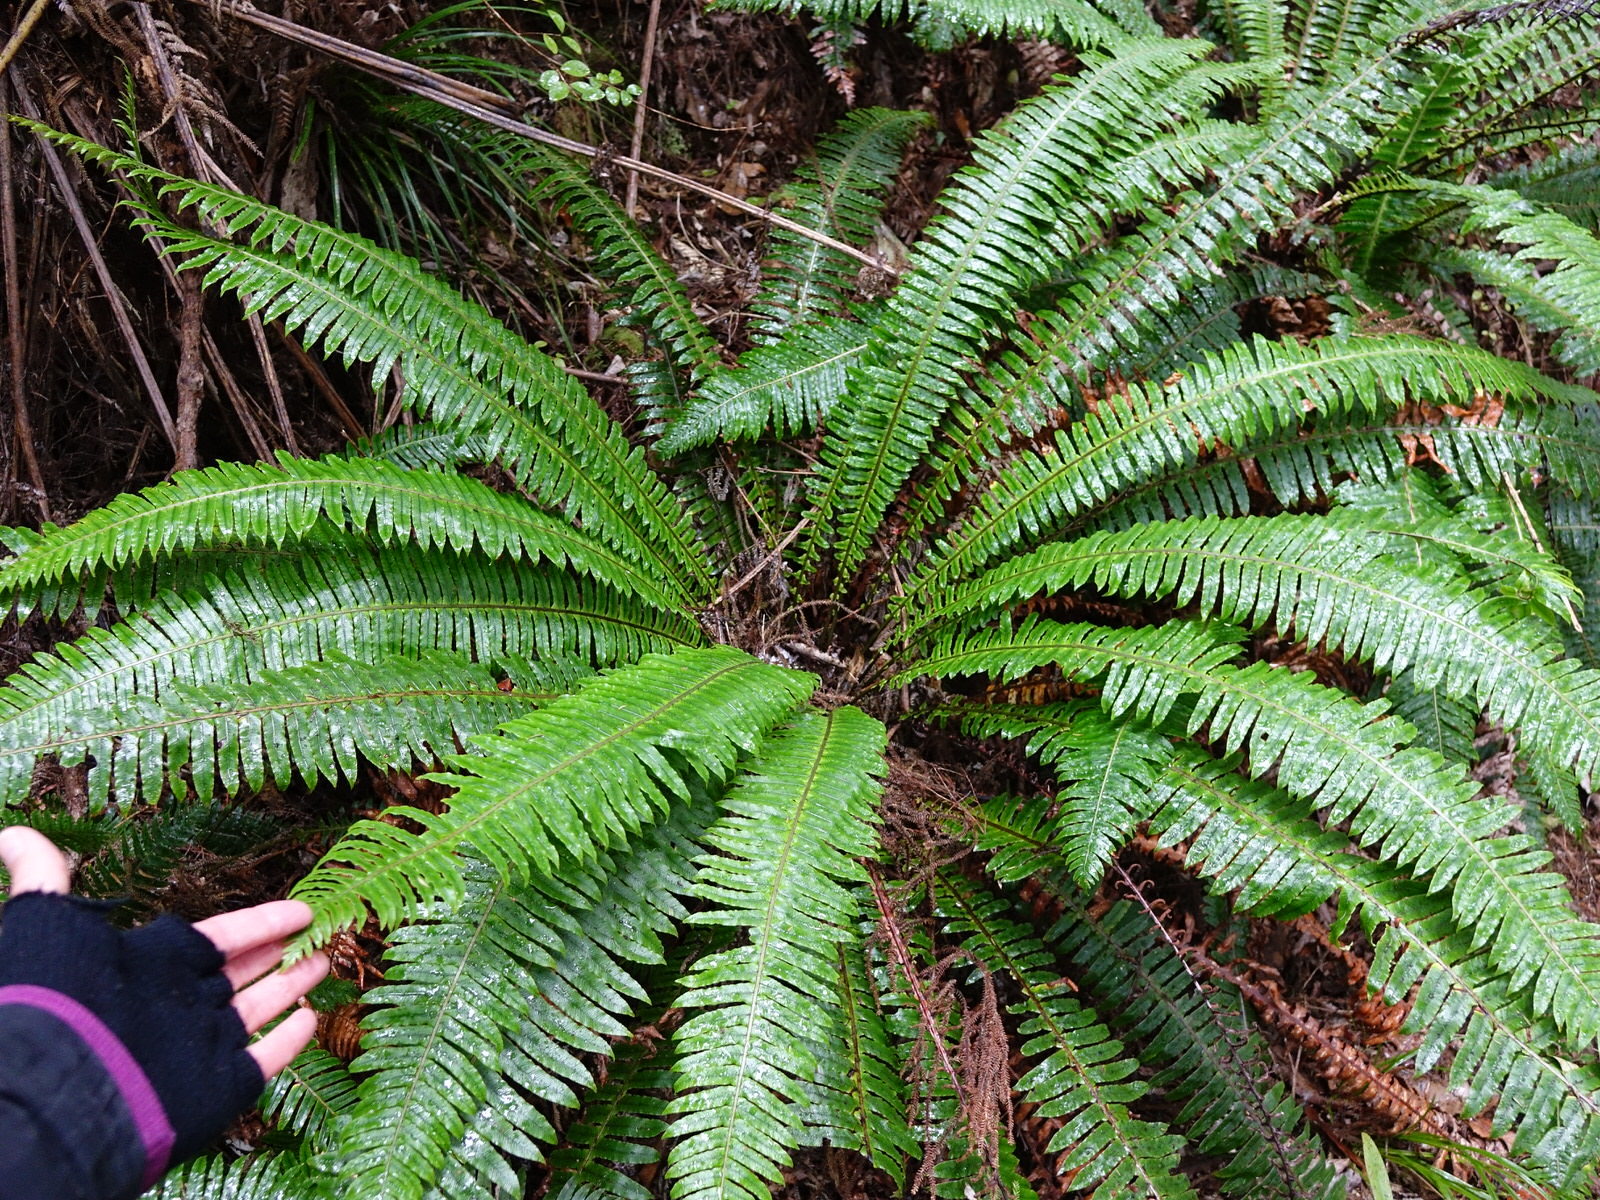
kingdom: Plantae
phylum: Tracheophyta
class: Polypodiopsida
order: Polypodiales
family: Blechnaceae
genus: Lomaria
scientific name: Lomaria discolor
